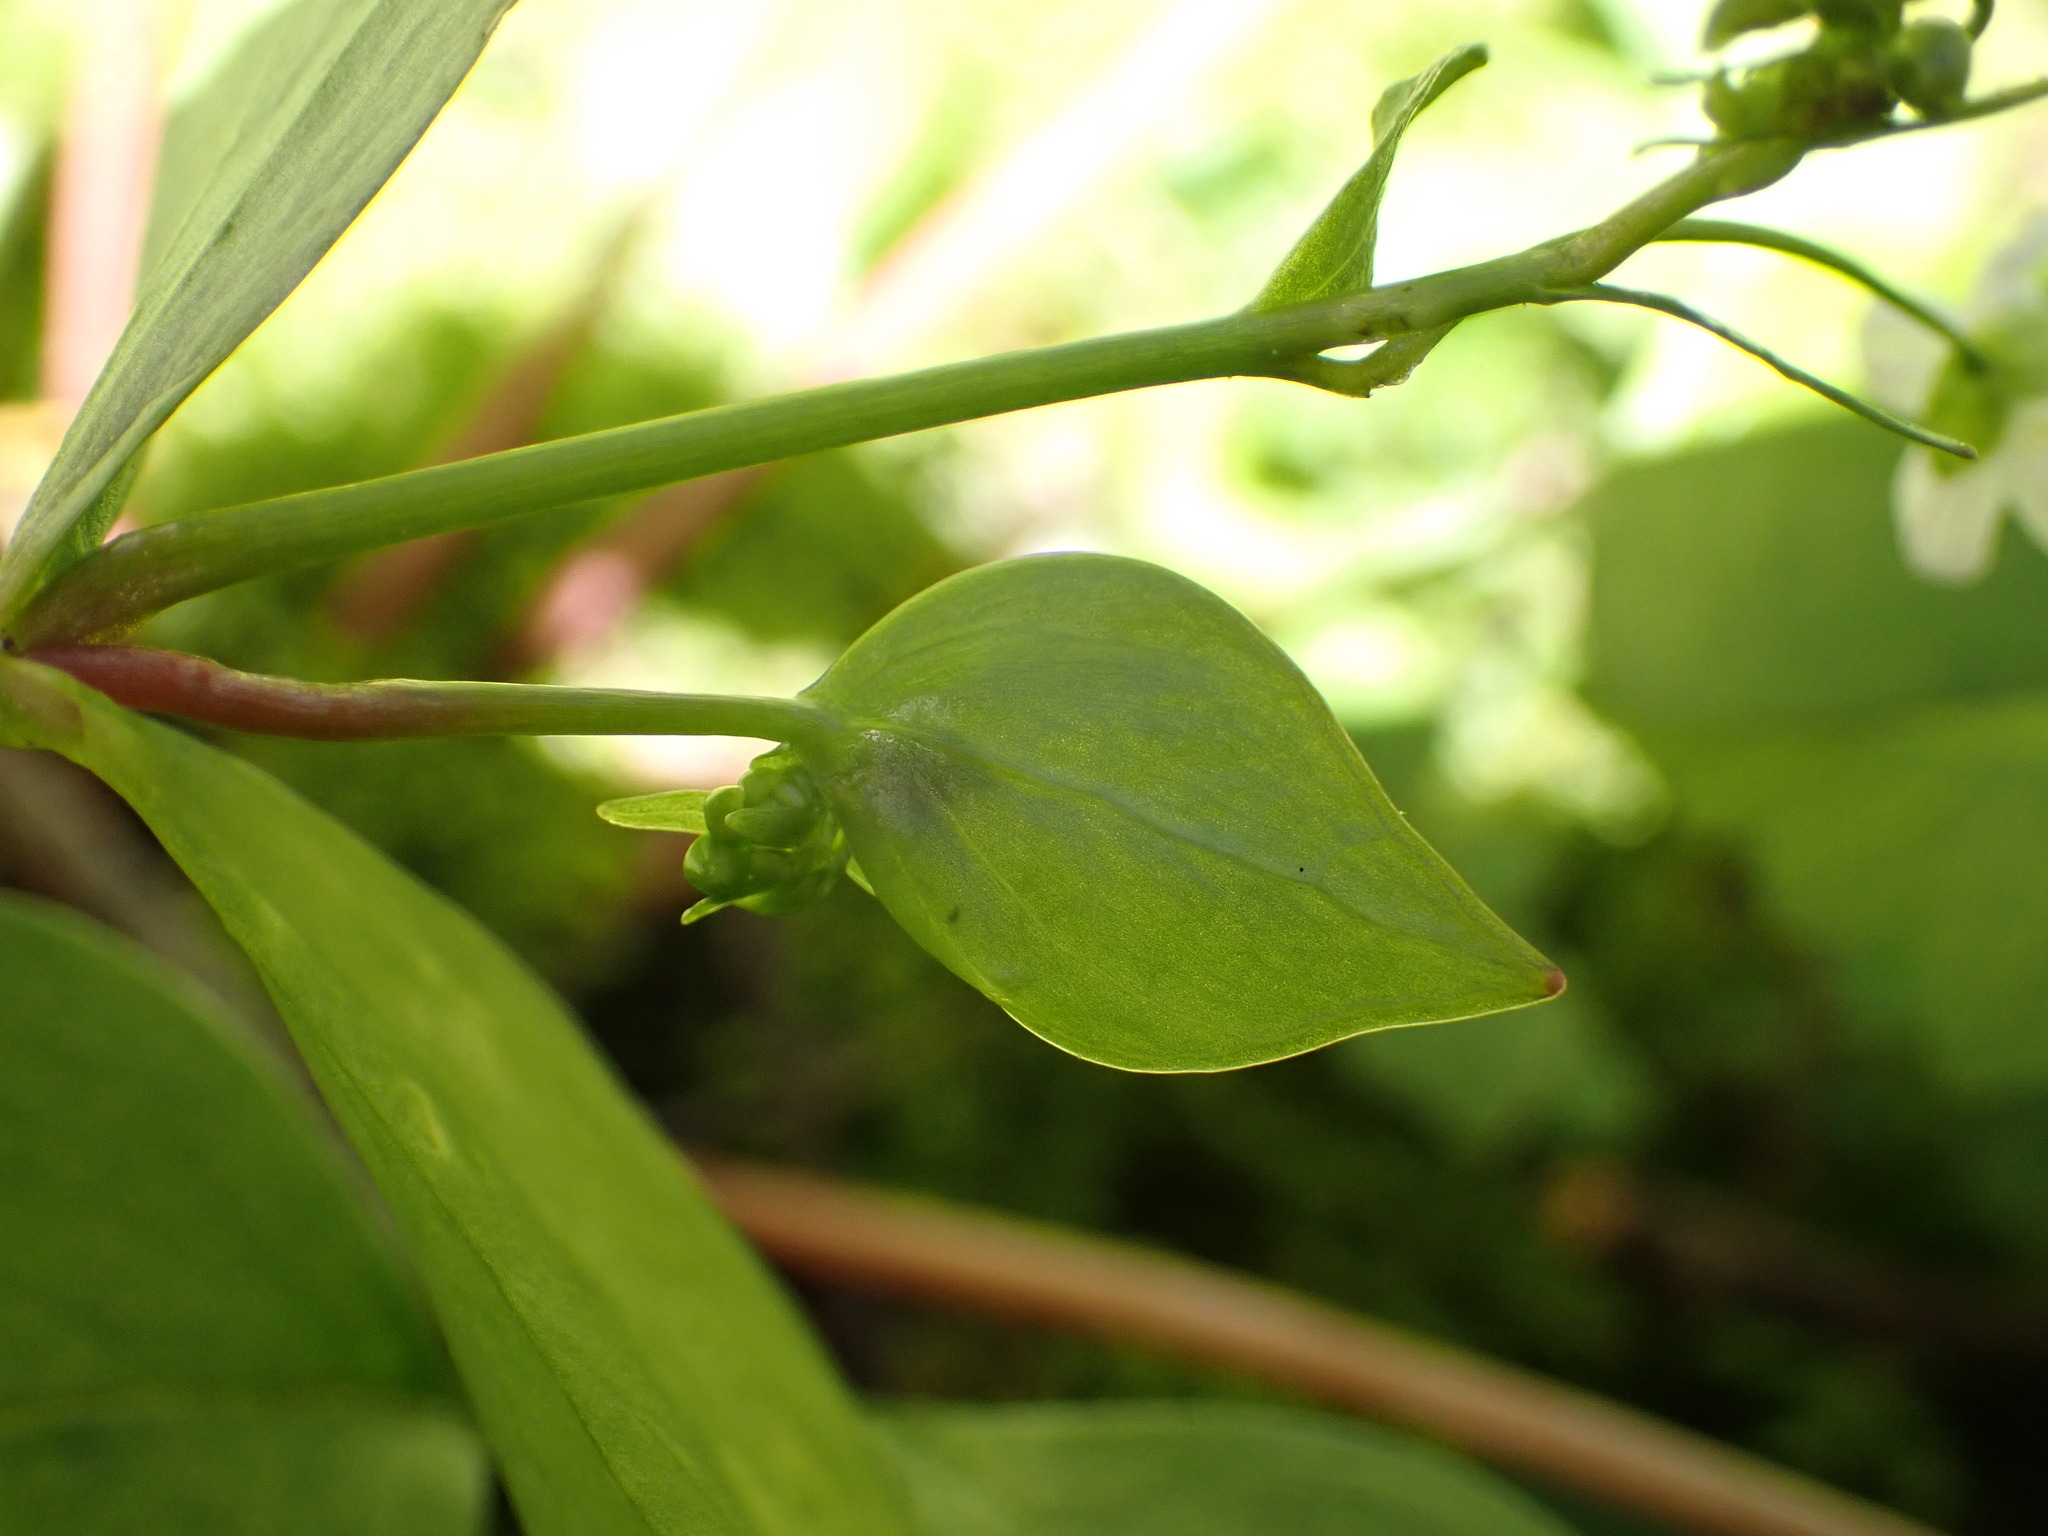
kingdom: Plantae
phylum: Tracheophyta
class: Magnoliopsida
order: Caryophyllales
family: Montiaceae
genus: Claytonia
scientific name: Claytonia sibirica
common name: Pink purslane
